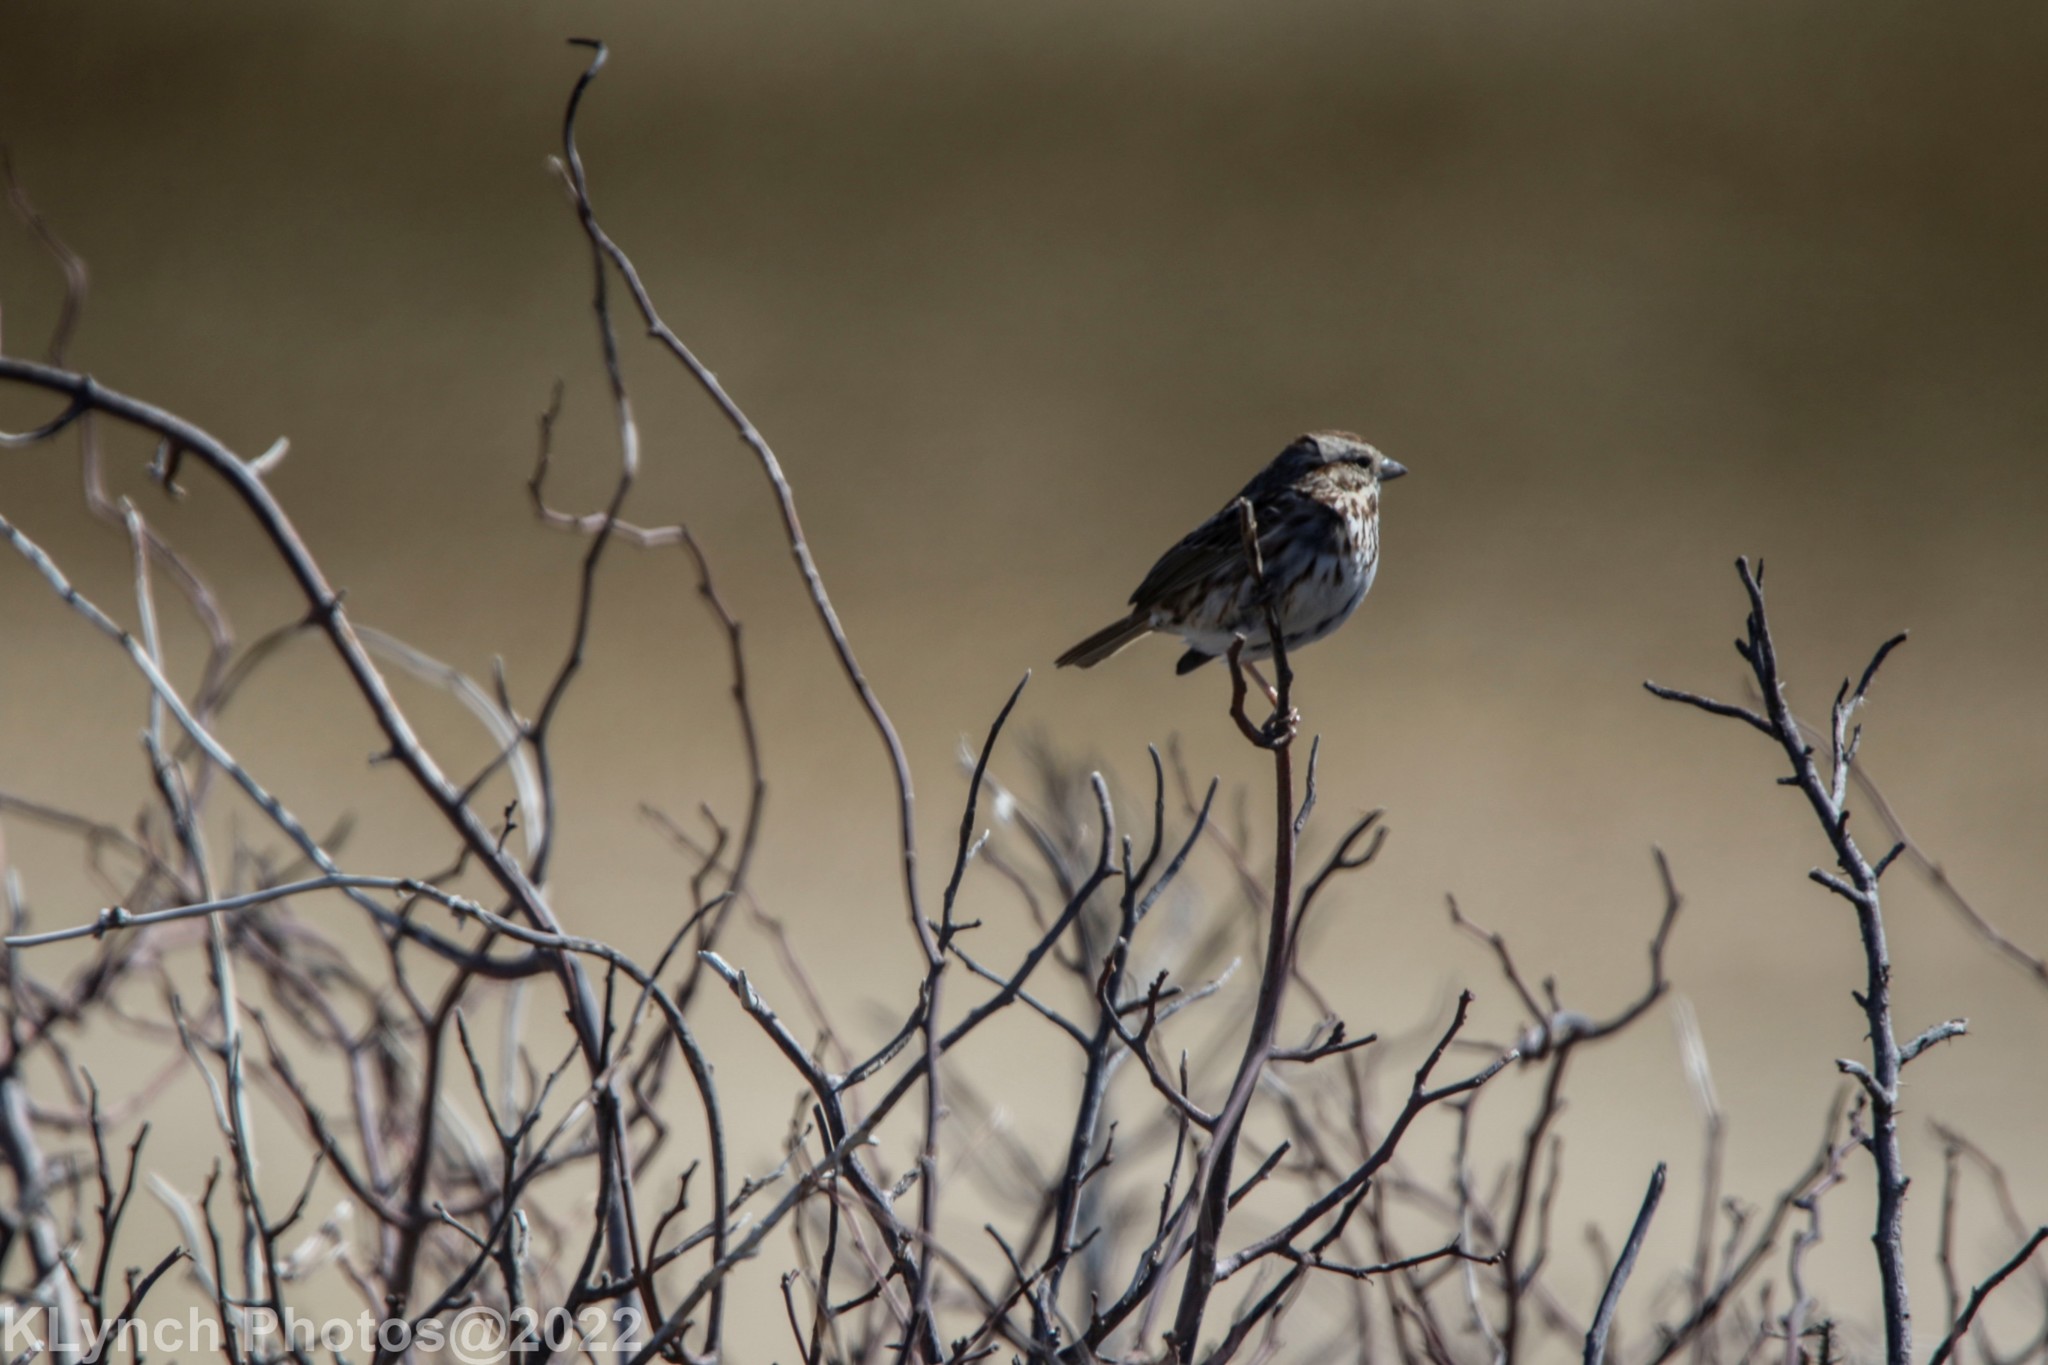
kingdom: Animalia
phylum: Chordata
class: Aves
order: Passeriformes
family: Passerellidae
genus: Melospiza
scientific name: Melospiza melodia
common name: Song sparrow
